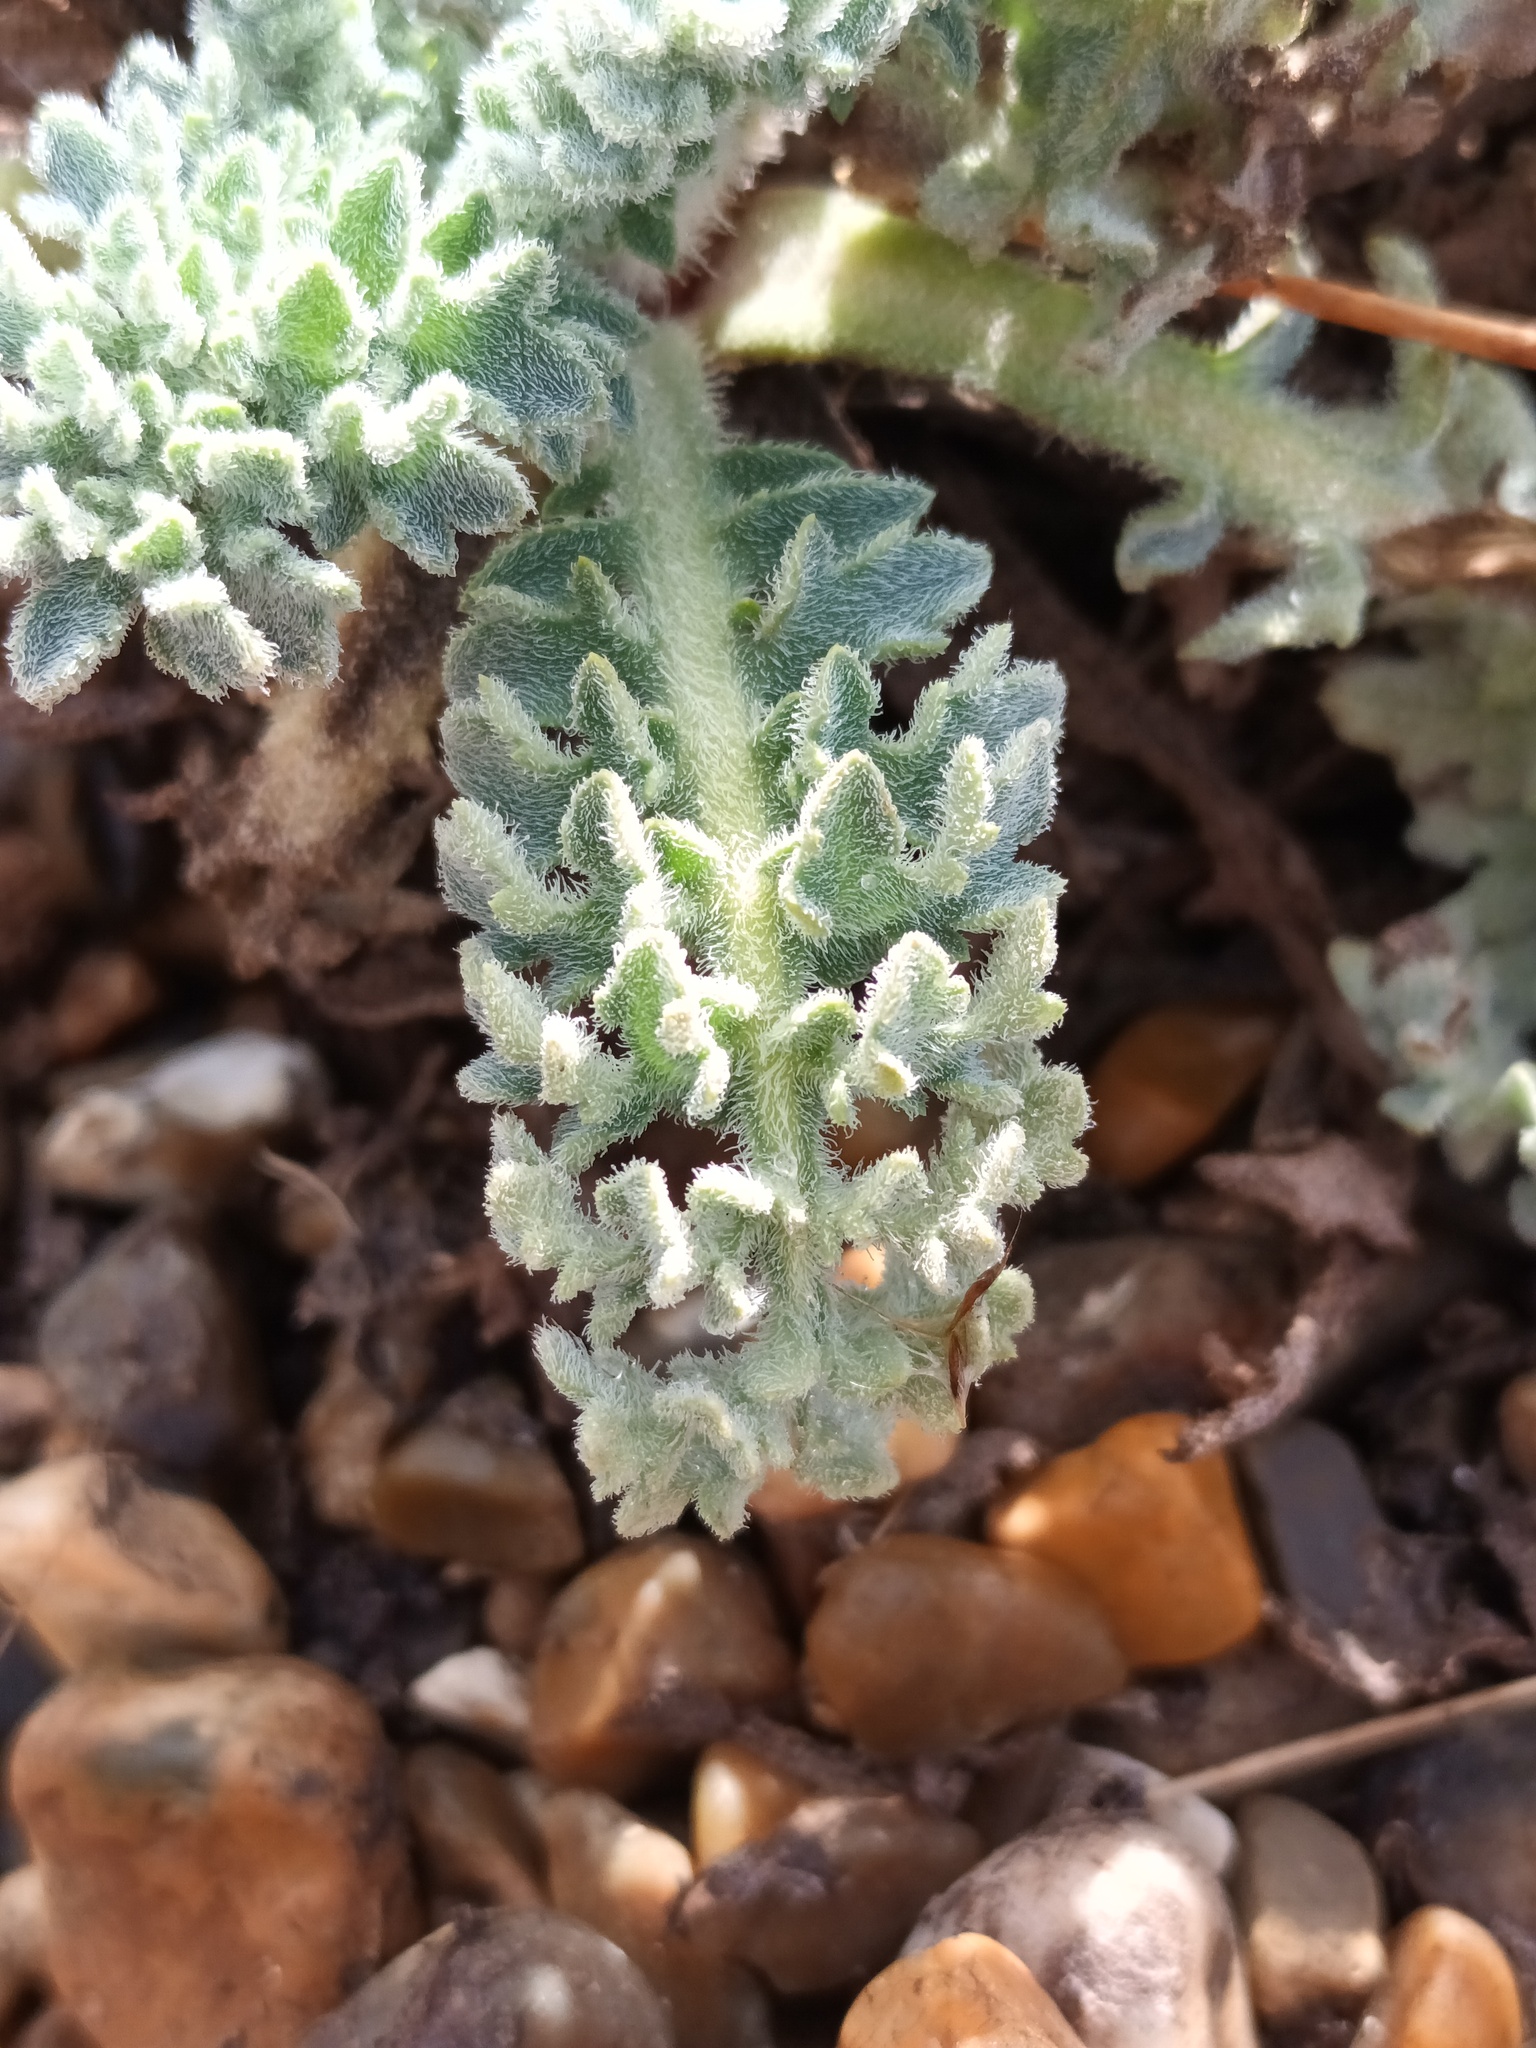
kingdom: Plantae
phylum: Tracheophyta
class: Magnoliopsida
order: Ranunculales
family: Papaveraceae
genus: Glaucium
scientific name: Glaucium flavum
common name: Yellow horned-poppy
